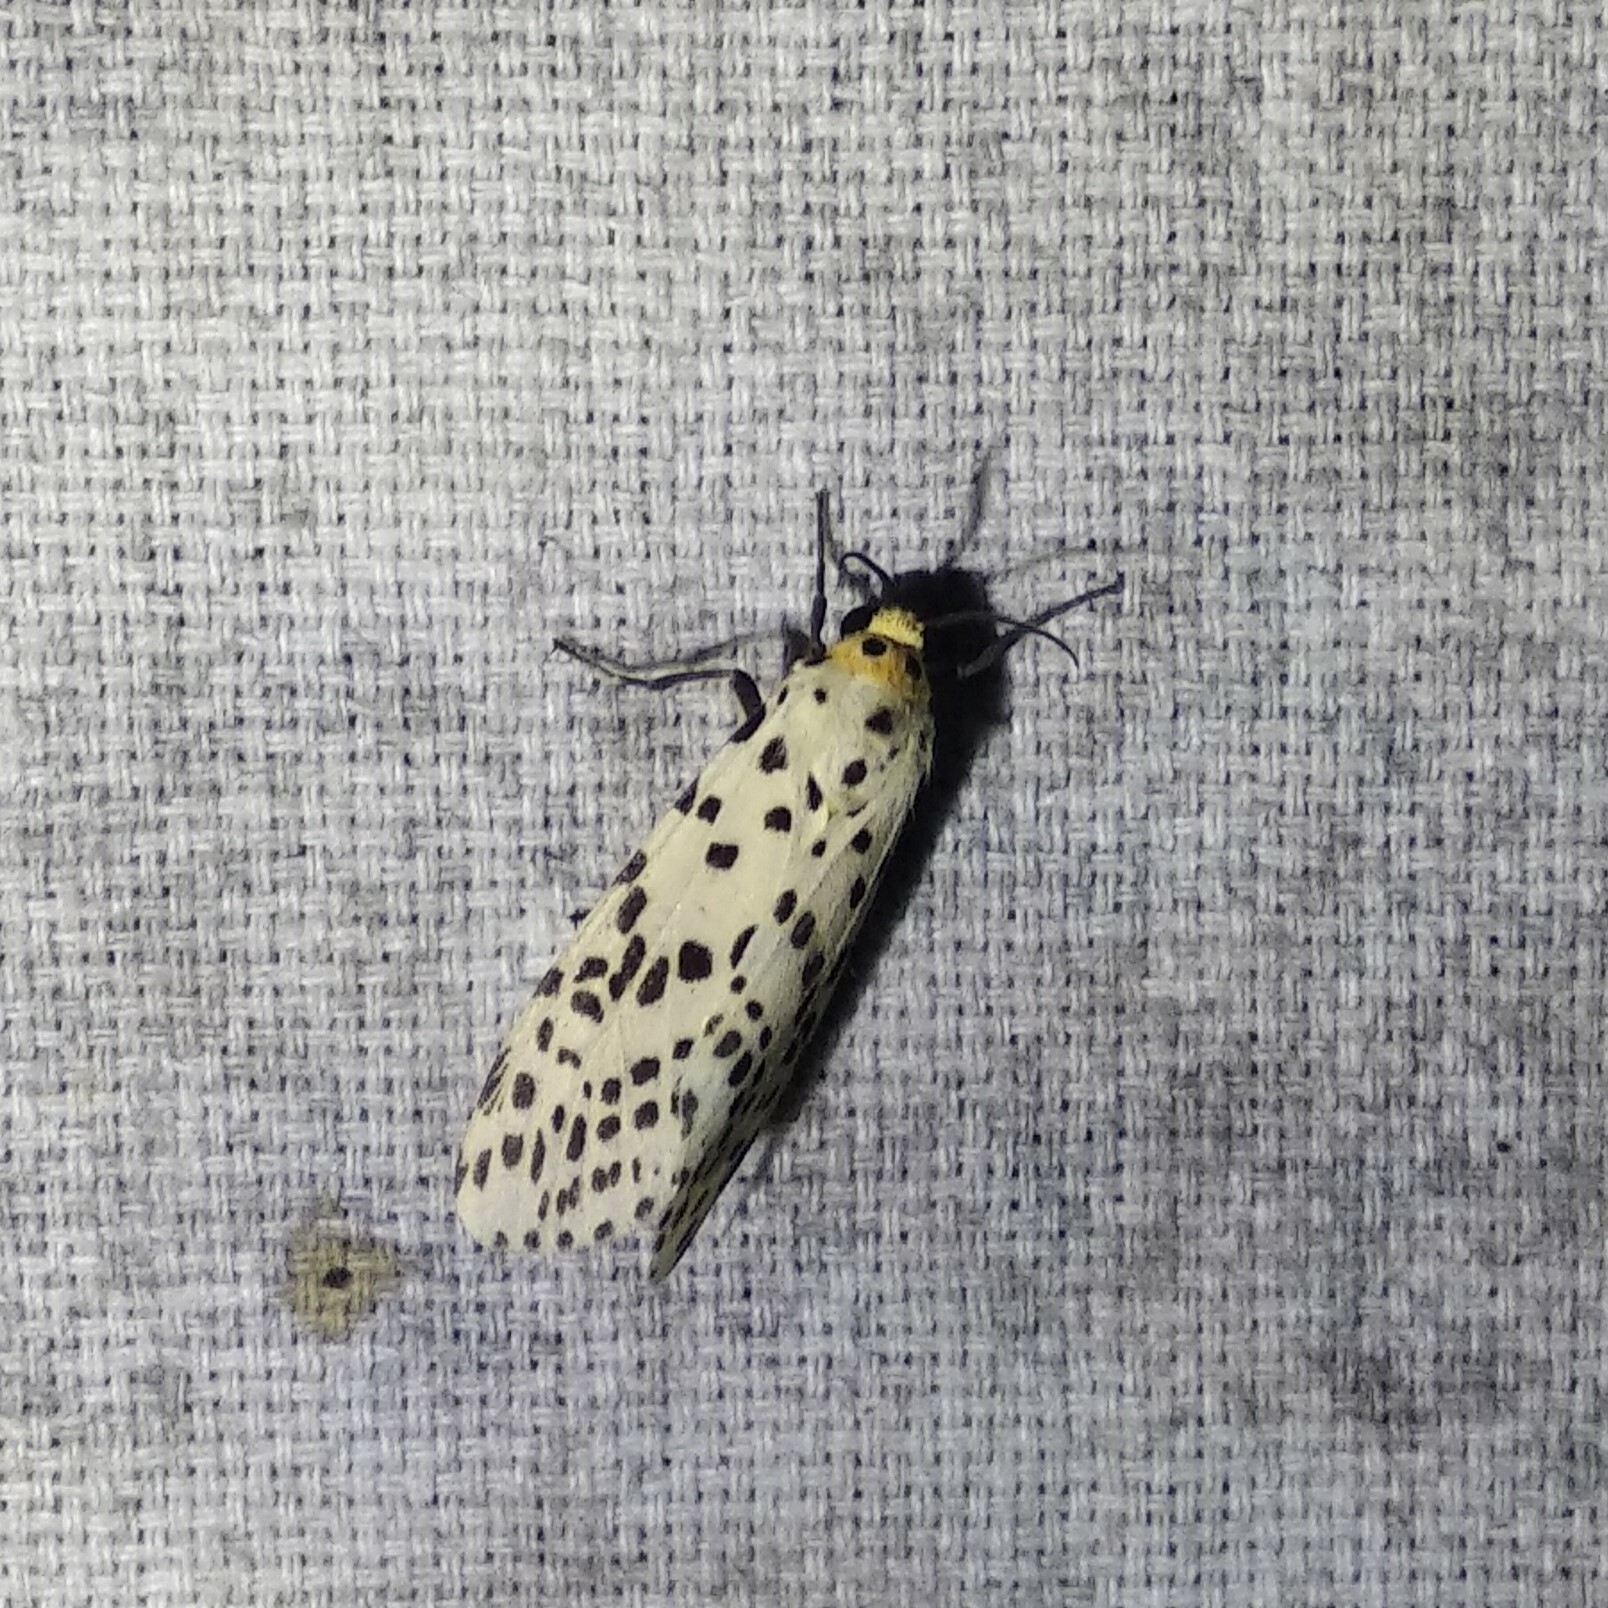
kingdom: Animalia
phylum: Arthropoda
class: Insecta
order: Lepidoptera
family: Erebidae
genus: Juxtarctia
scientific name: Juxtarctia
